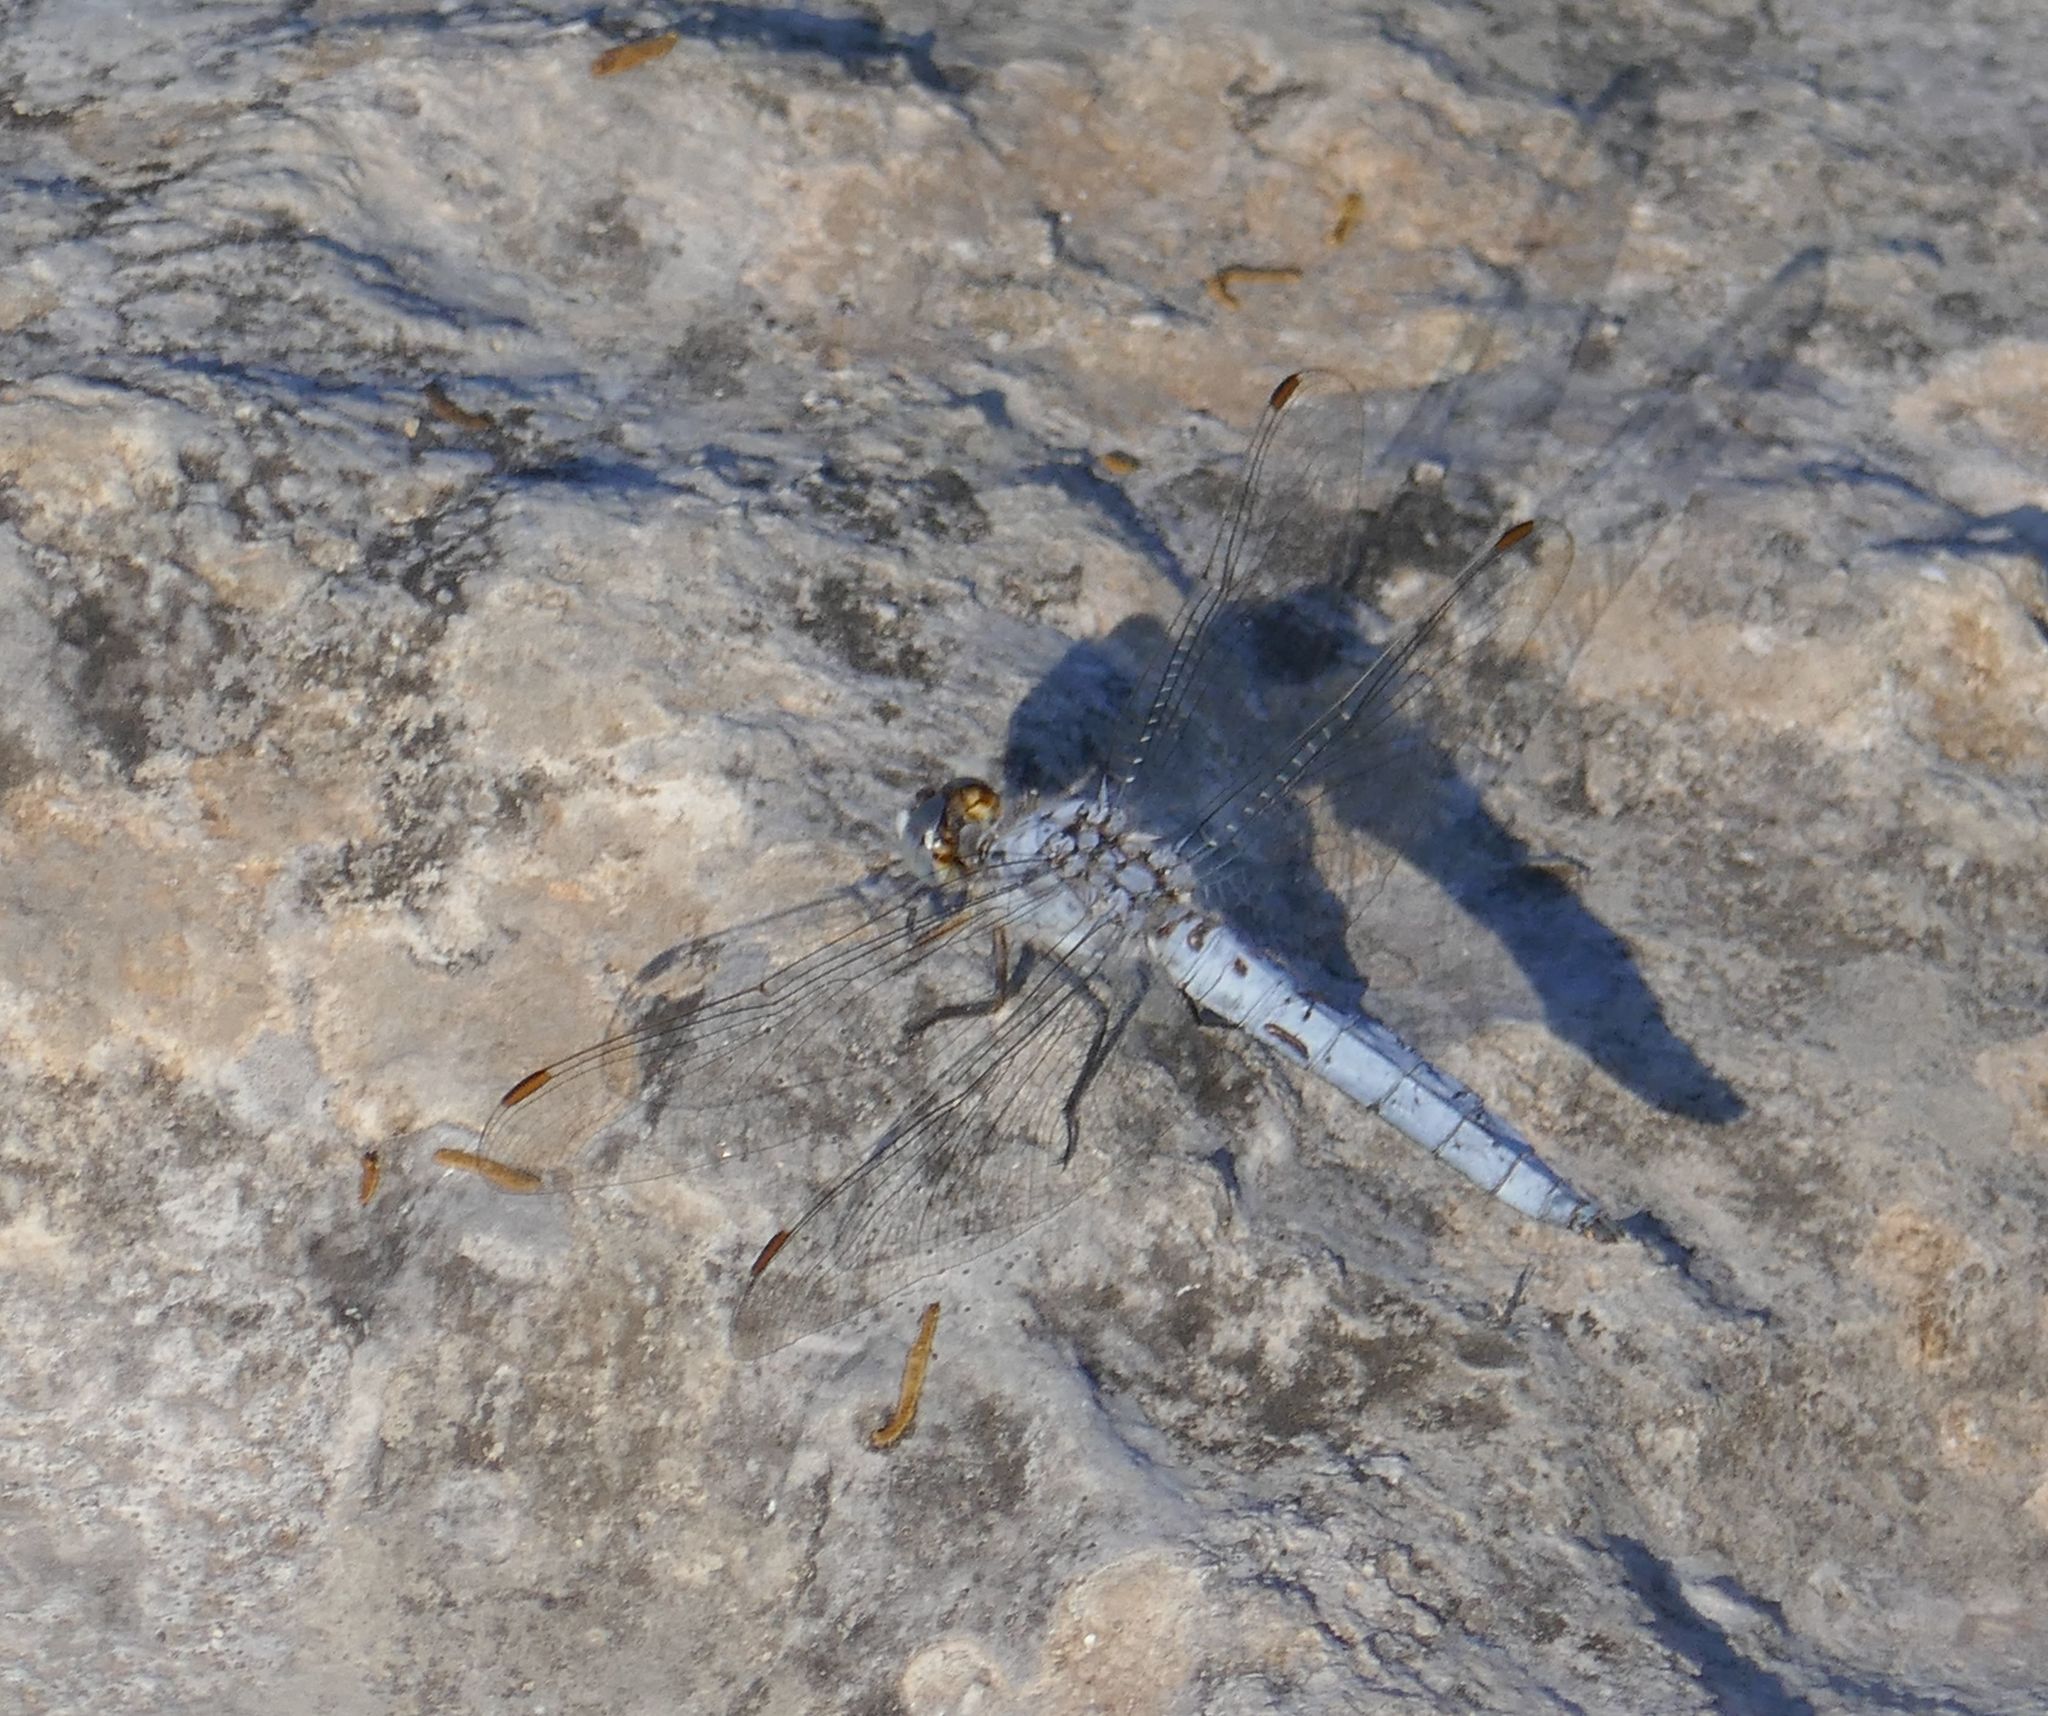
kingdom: Animalia
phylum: Arthropoda
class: Insecta
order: Odonata
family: Libellulidae
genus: Orthetrum
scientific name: Orthetrum brunneum
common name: Southern skimmer
